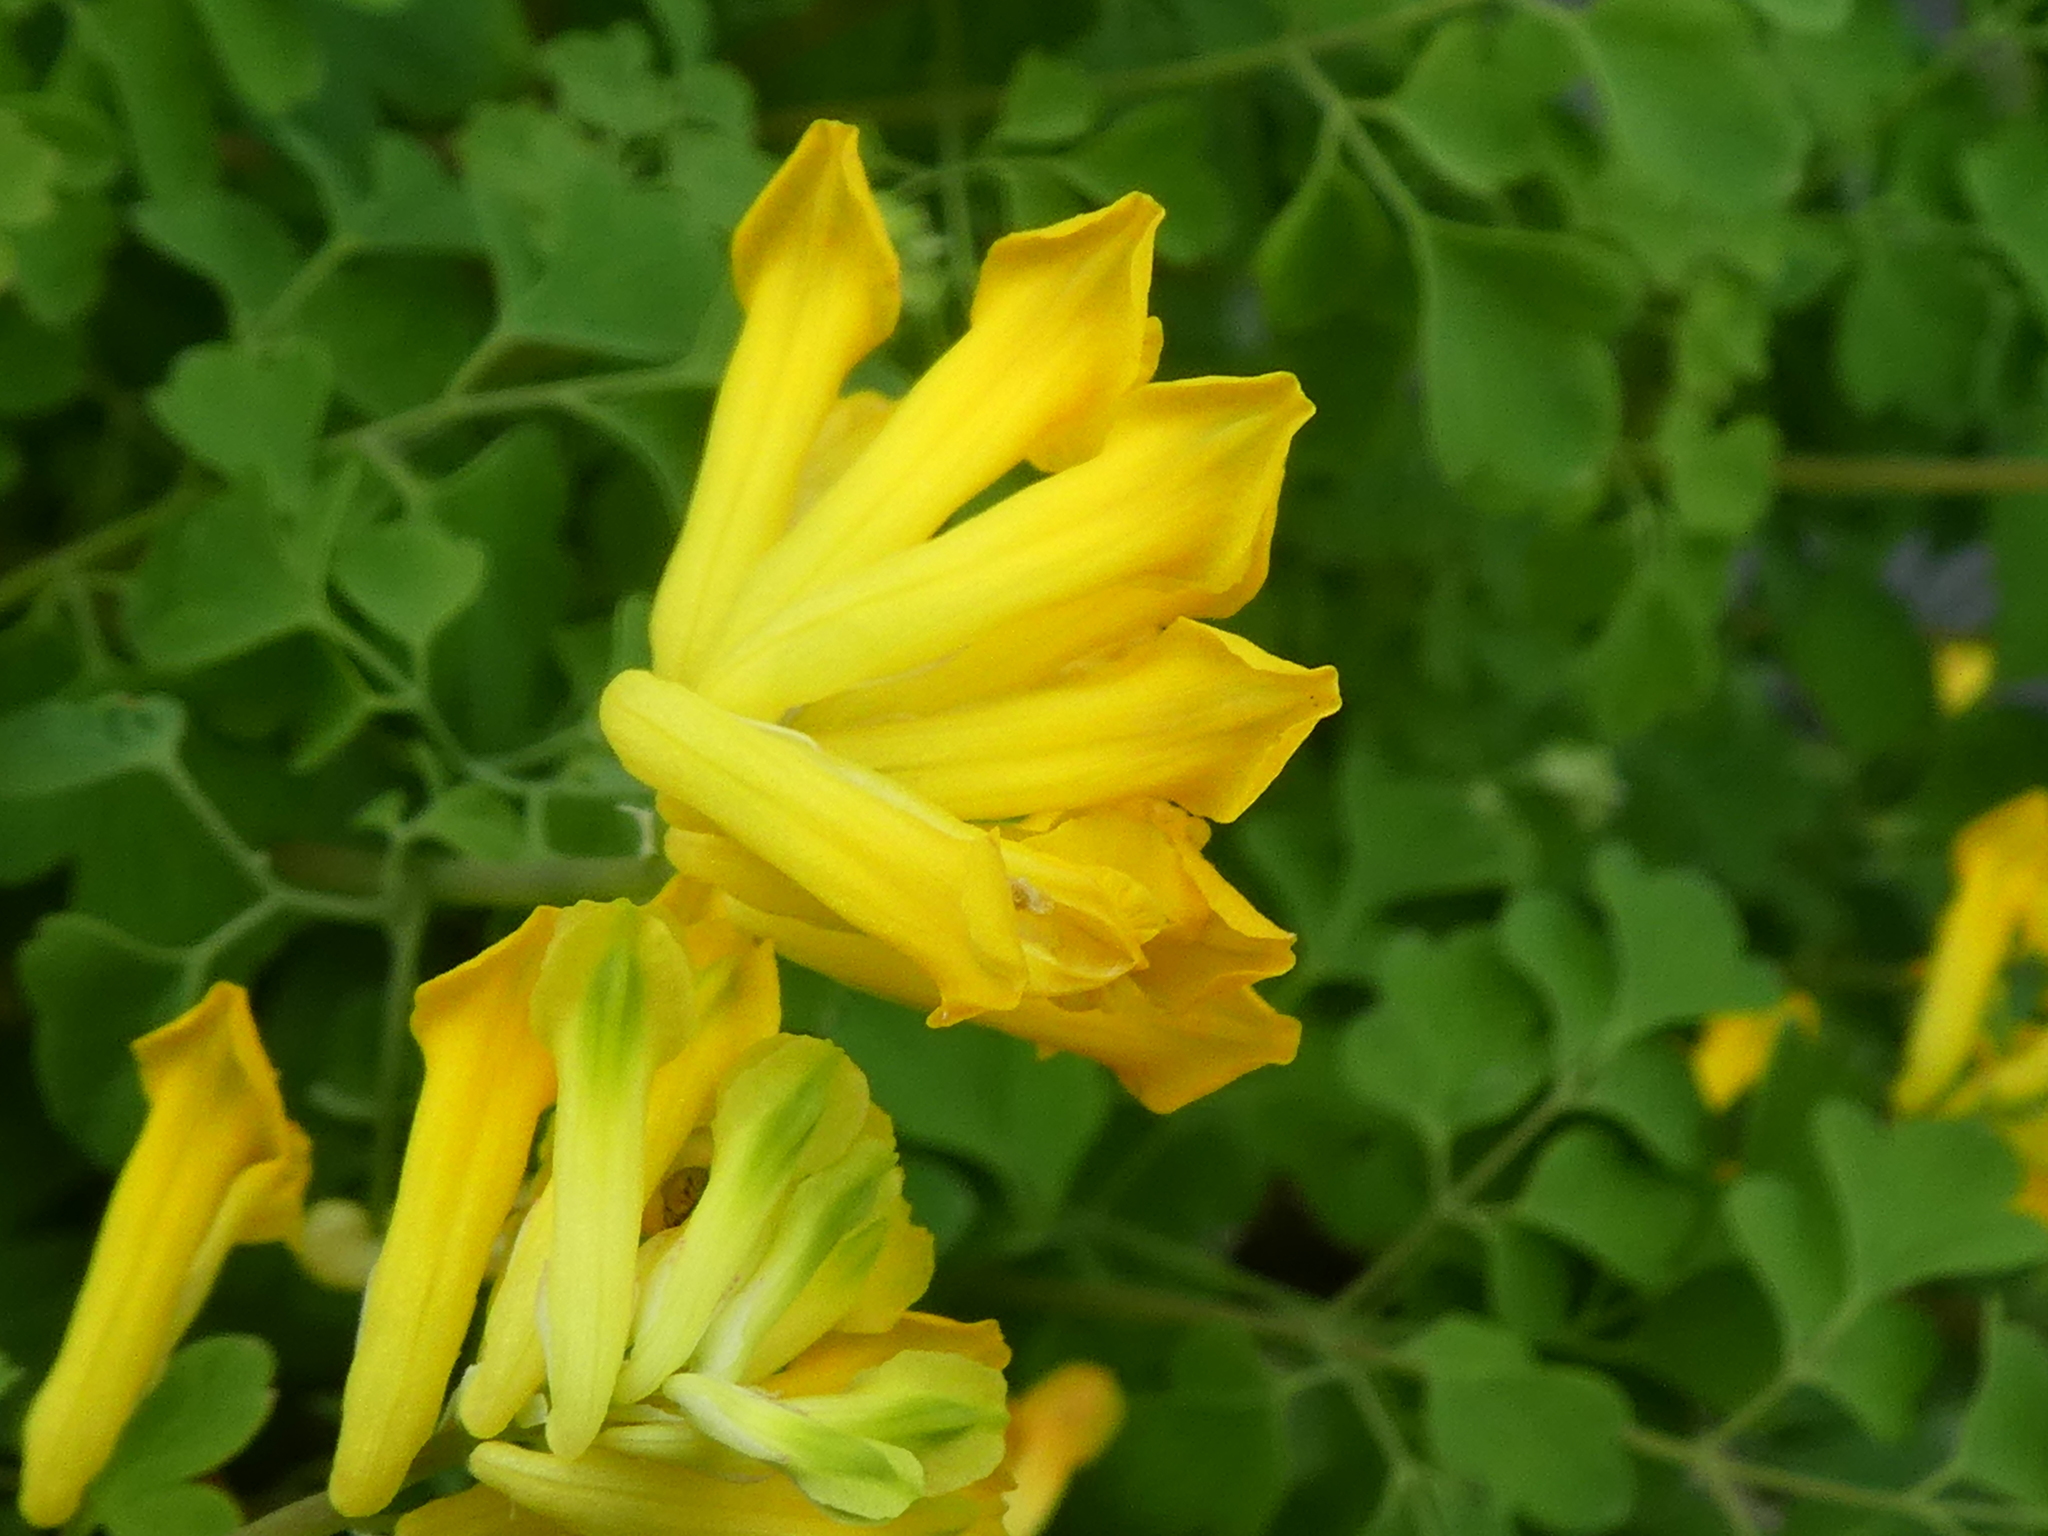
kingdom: Plantae
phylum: Tracheophyta
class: Magnoliopsida
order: Ranunculales
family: Papaveraceae
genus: Pseudofumaria
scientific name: Pseudofumaria lutea
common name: Yellow corydalis
